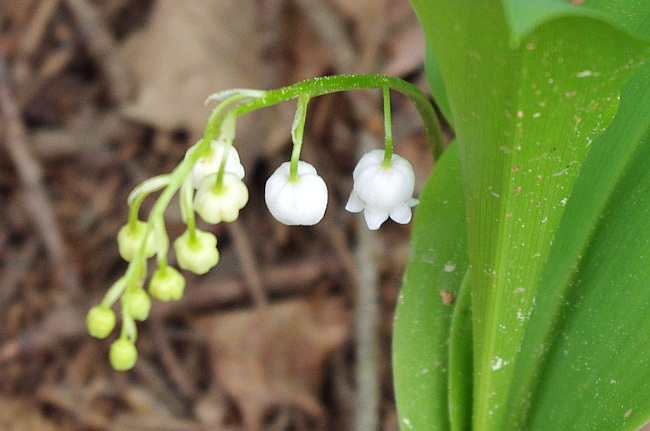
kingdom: Plantae
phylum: Tracheophyta
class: Liliopsida
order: Asparagales
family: Asparagaceae
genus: Convallaria
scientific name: Convallaria majalis
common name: Lily-of-the-valley
